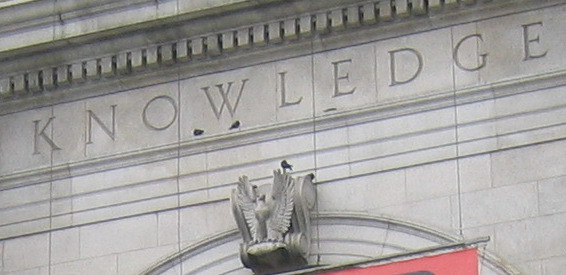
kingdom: Animalia
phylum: Chordata
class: Aves
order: Columbiformes
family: Columbidae
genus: Columba
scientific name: Columba livia
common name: Rock pigeon
